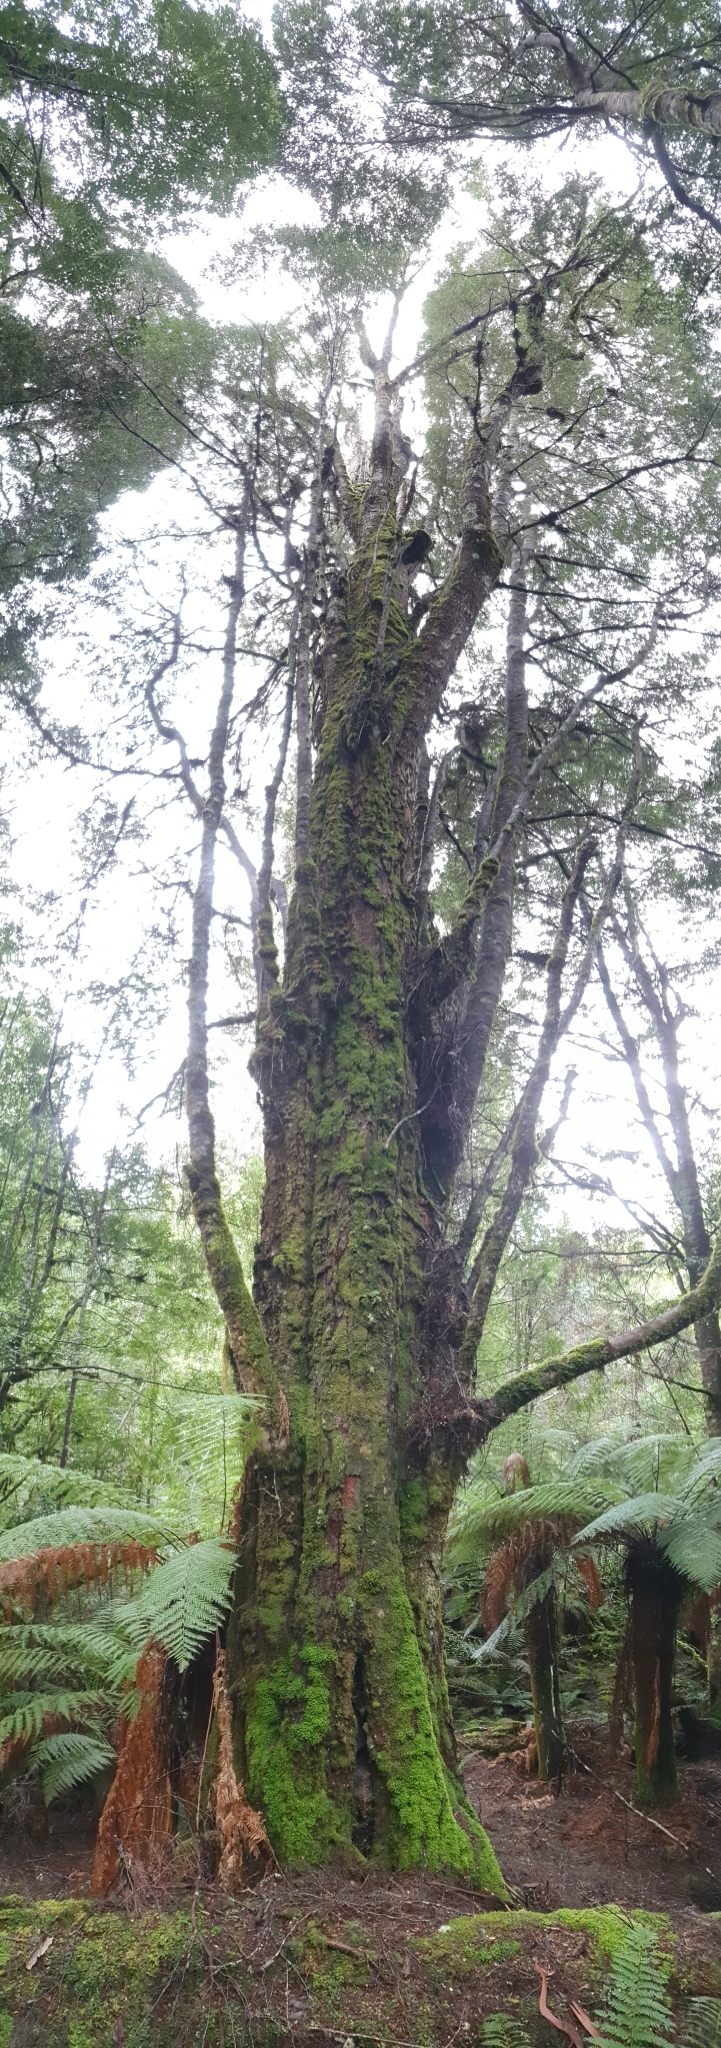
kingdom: Plantae
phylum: Tracheophyta
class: Magnoliopsida
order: Fagales
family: Nothofagaceae
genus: Nothofagus
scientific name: Nothofagus cunninghamii
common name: Myrtle beech
